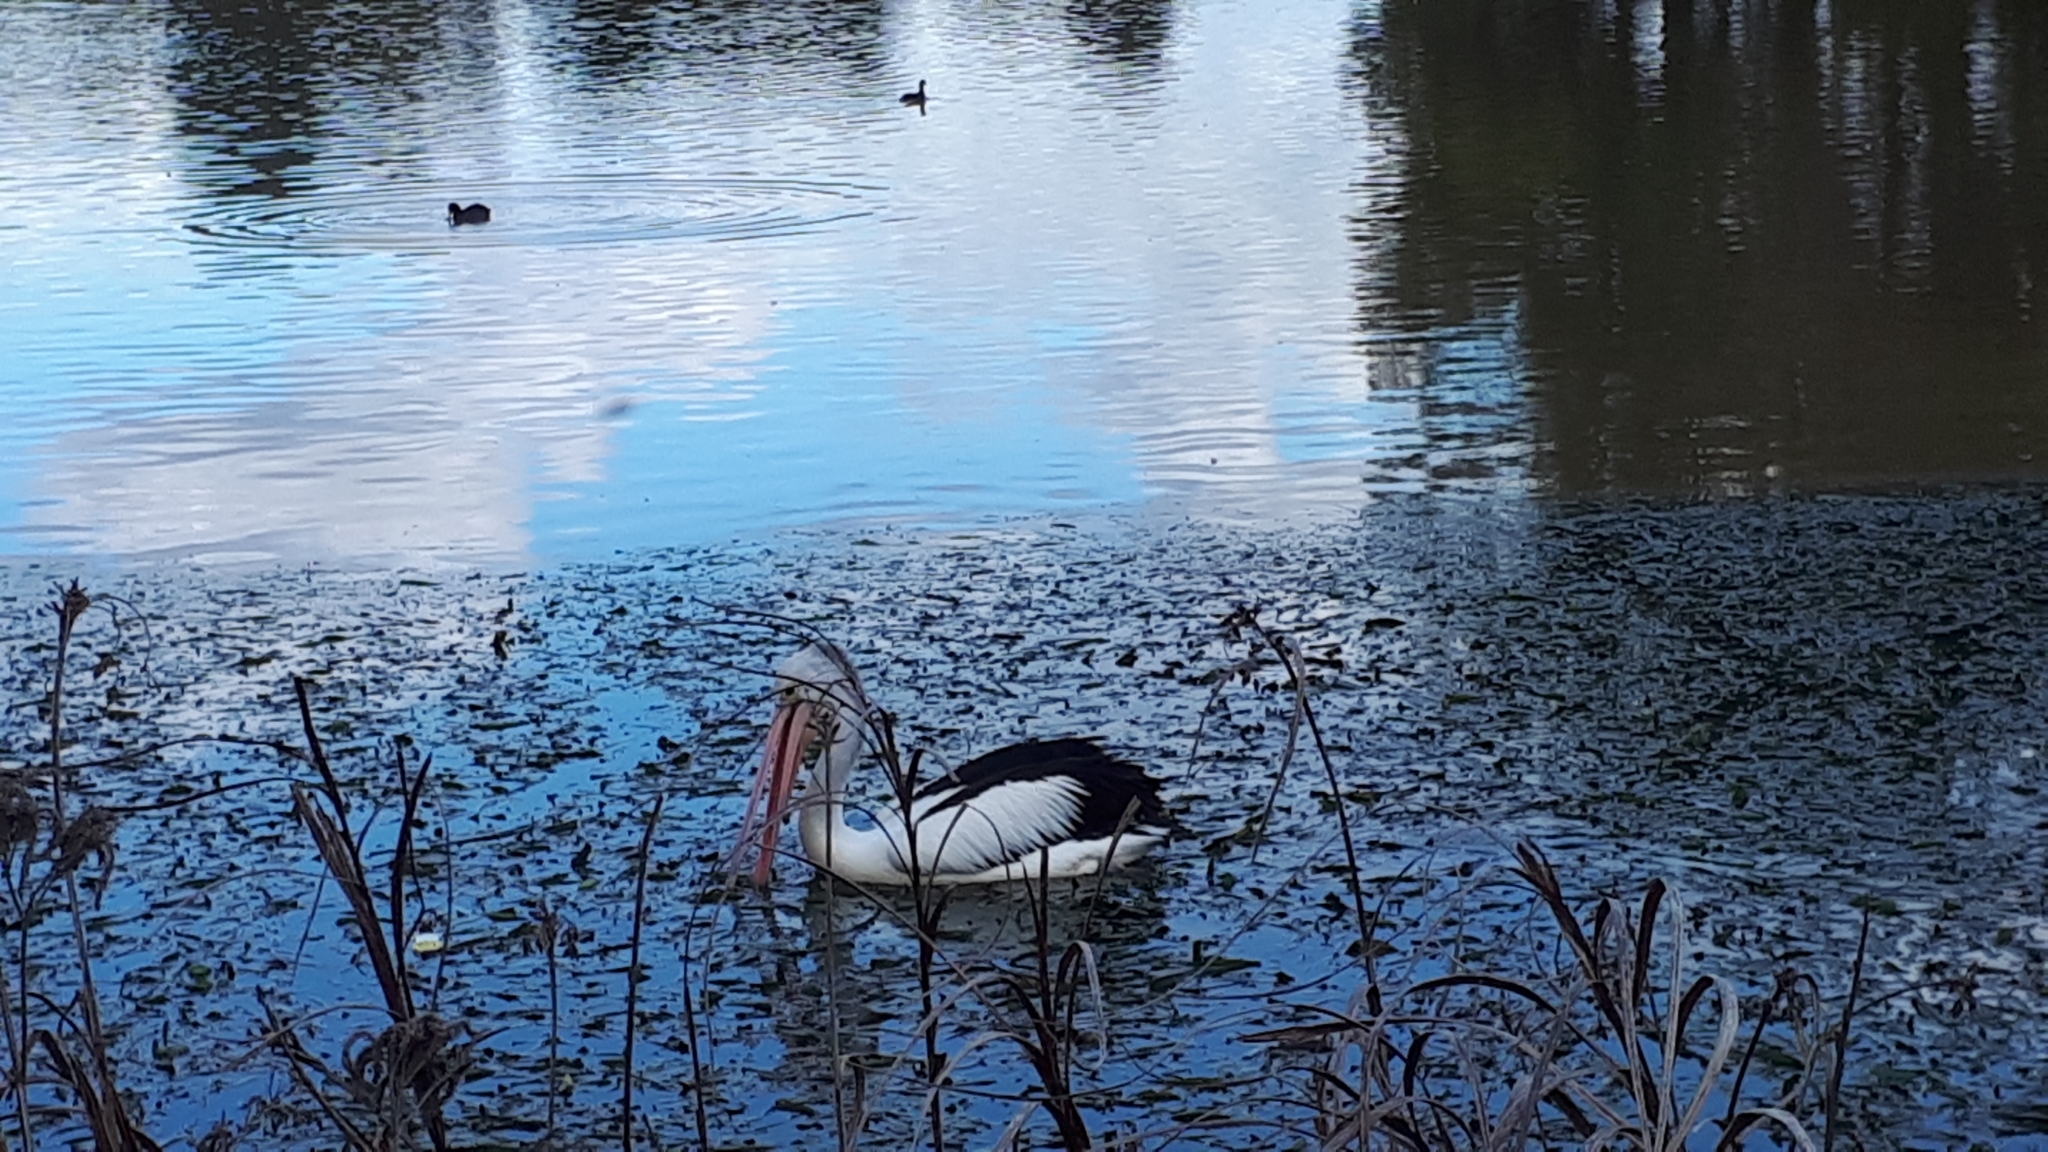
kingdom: Animalia
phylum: Chordata
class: Aves
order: Pelecaniformes
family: Pelecanidae
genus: Pelecanus
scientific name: Pelecanus conspicillatus
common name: Australian pelican
